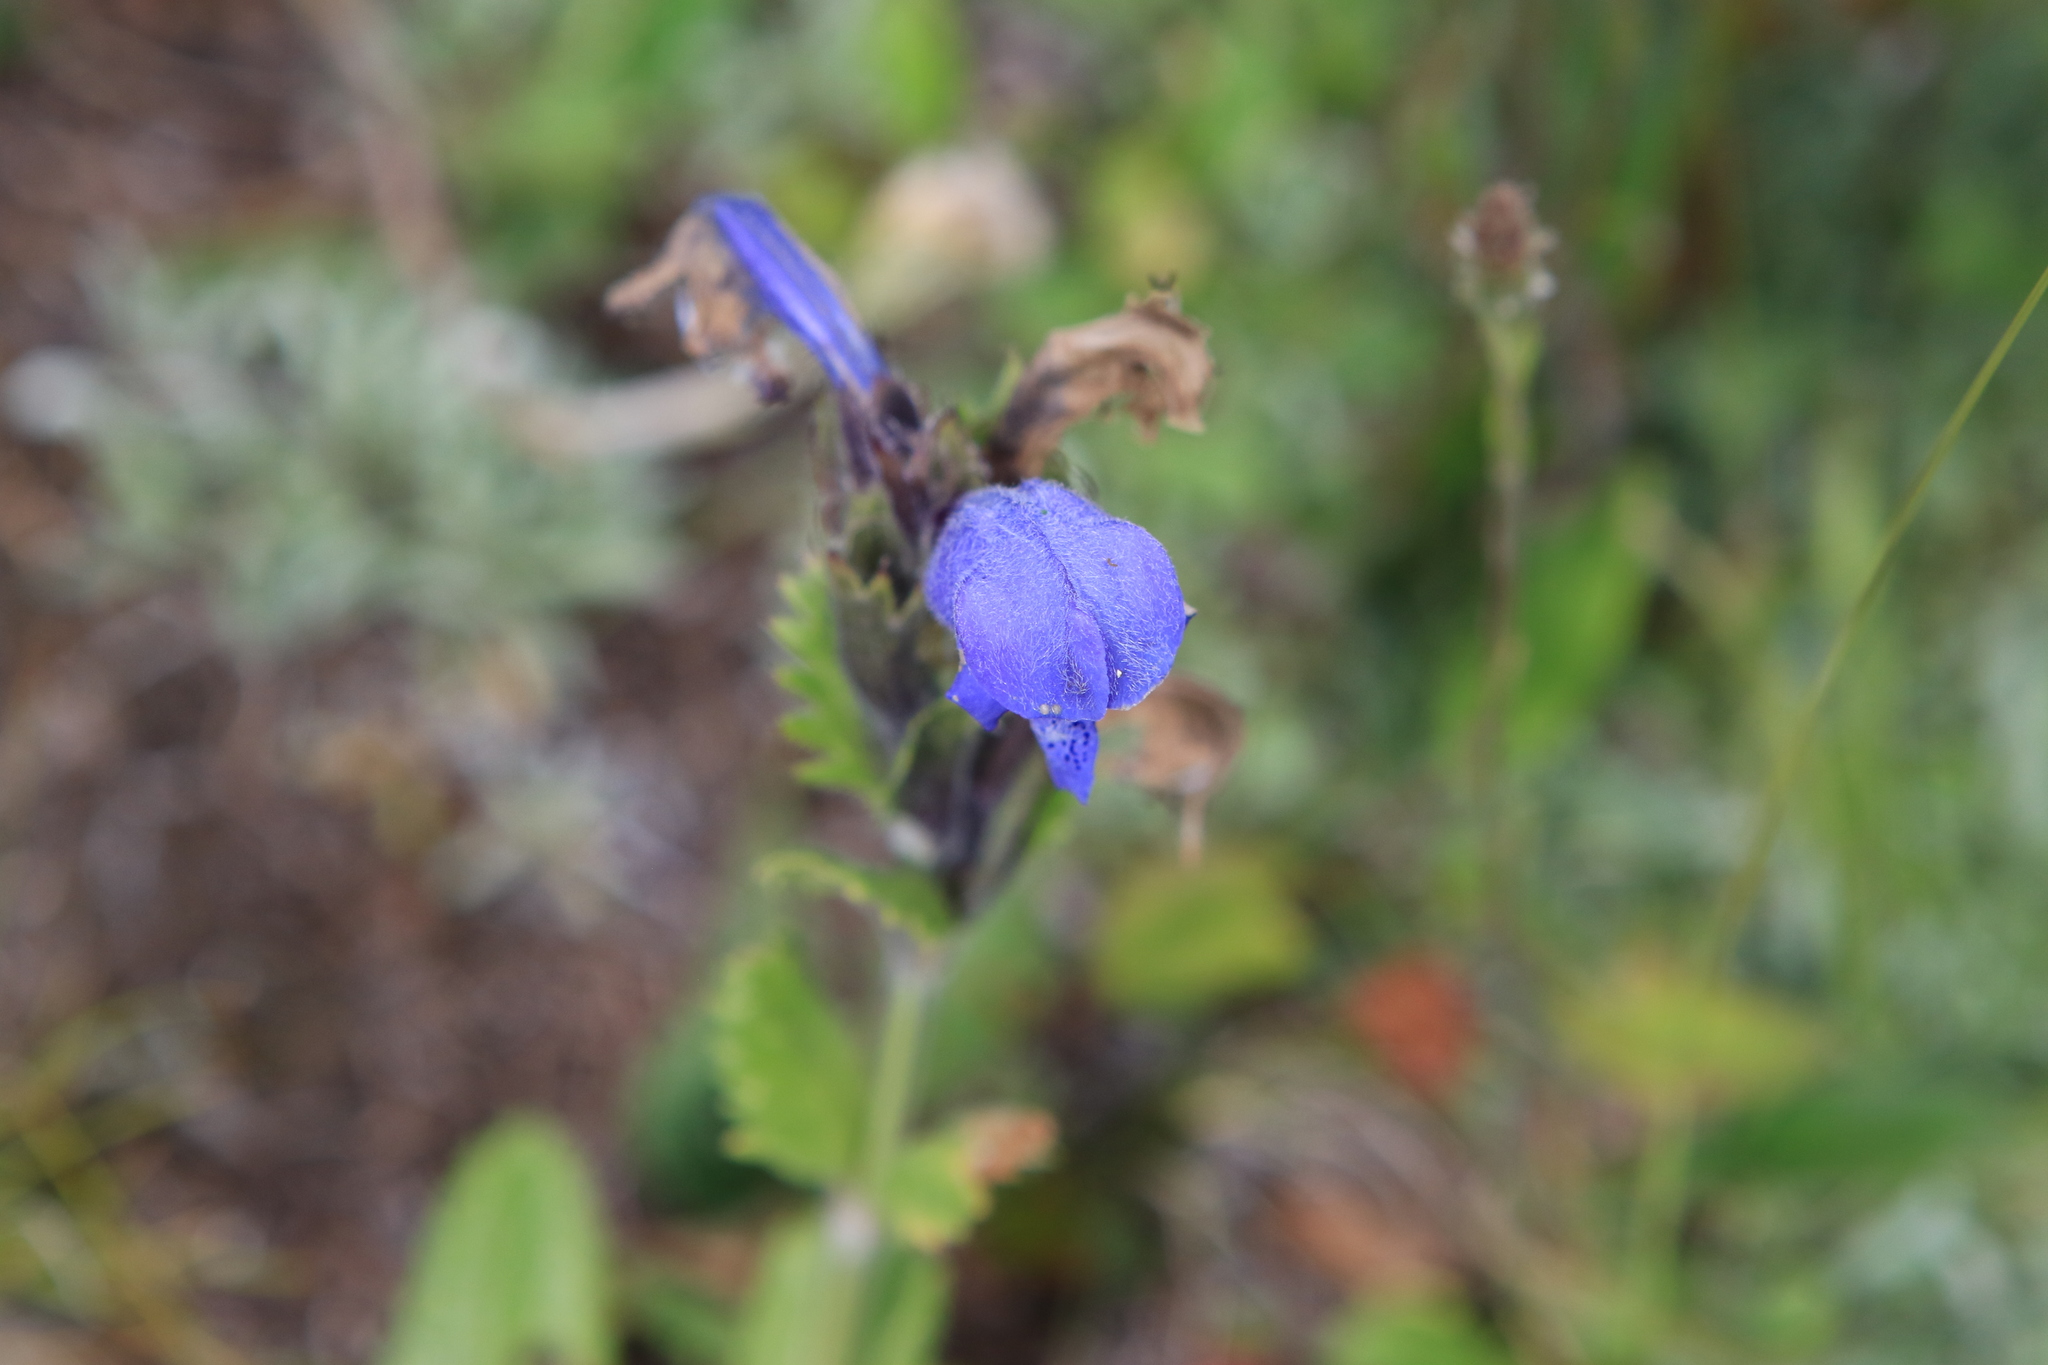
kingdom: Plantae
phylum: Tracheophyta
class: Magnoliopsida
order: Lamiales
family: Lamiaceae
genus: Dracocephalum
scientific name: Dracocephalum grandiflorum
